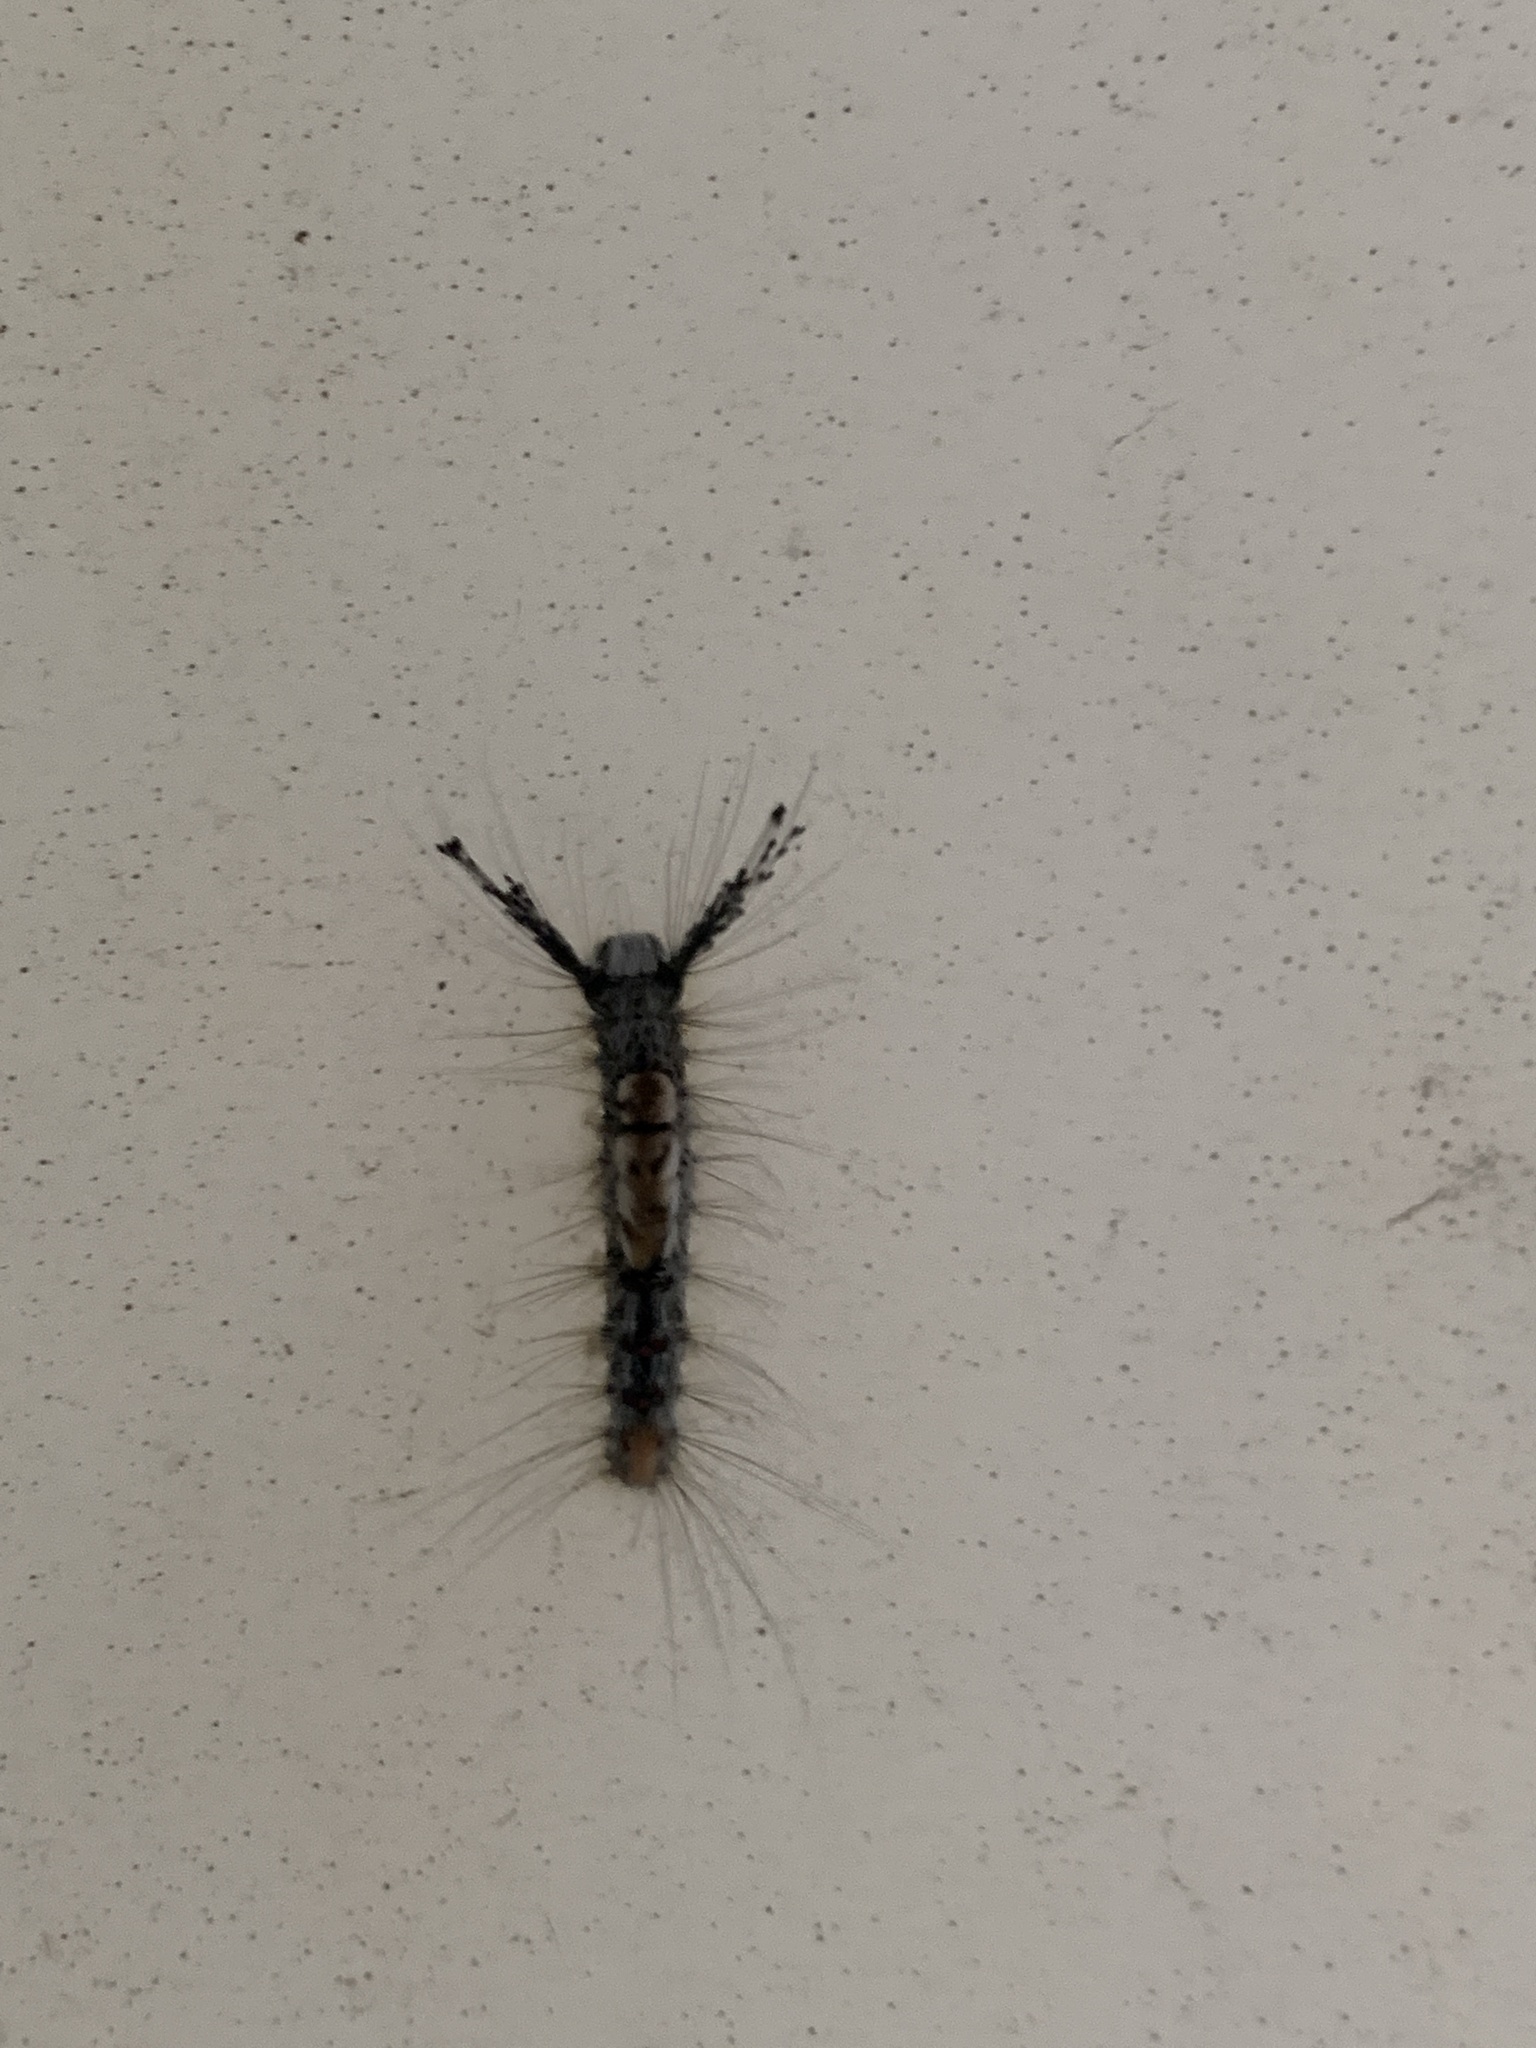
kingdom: Animalia
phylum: Arthropoda
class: Insecta
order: Lepidoptera
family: Erebidae
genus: Orgyia
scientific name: Orgyia pseudotsugata
